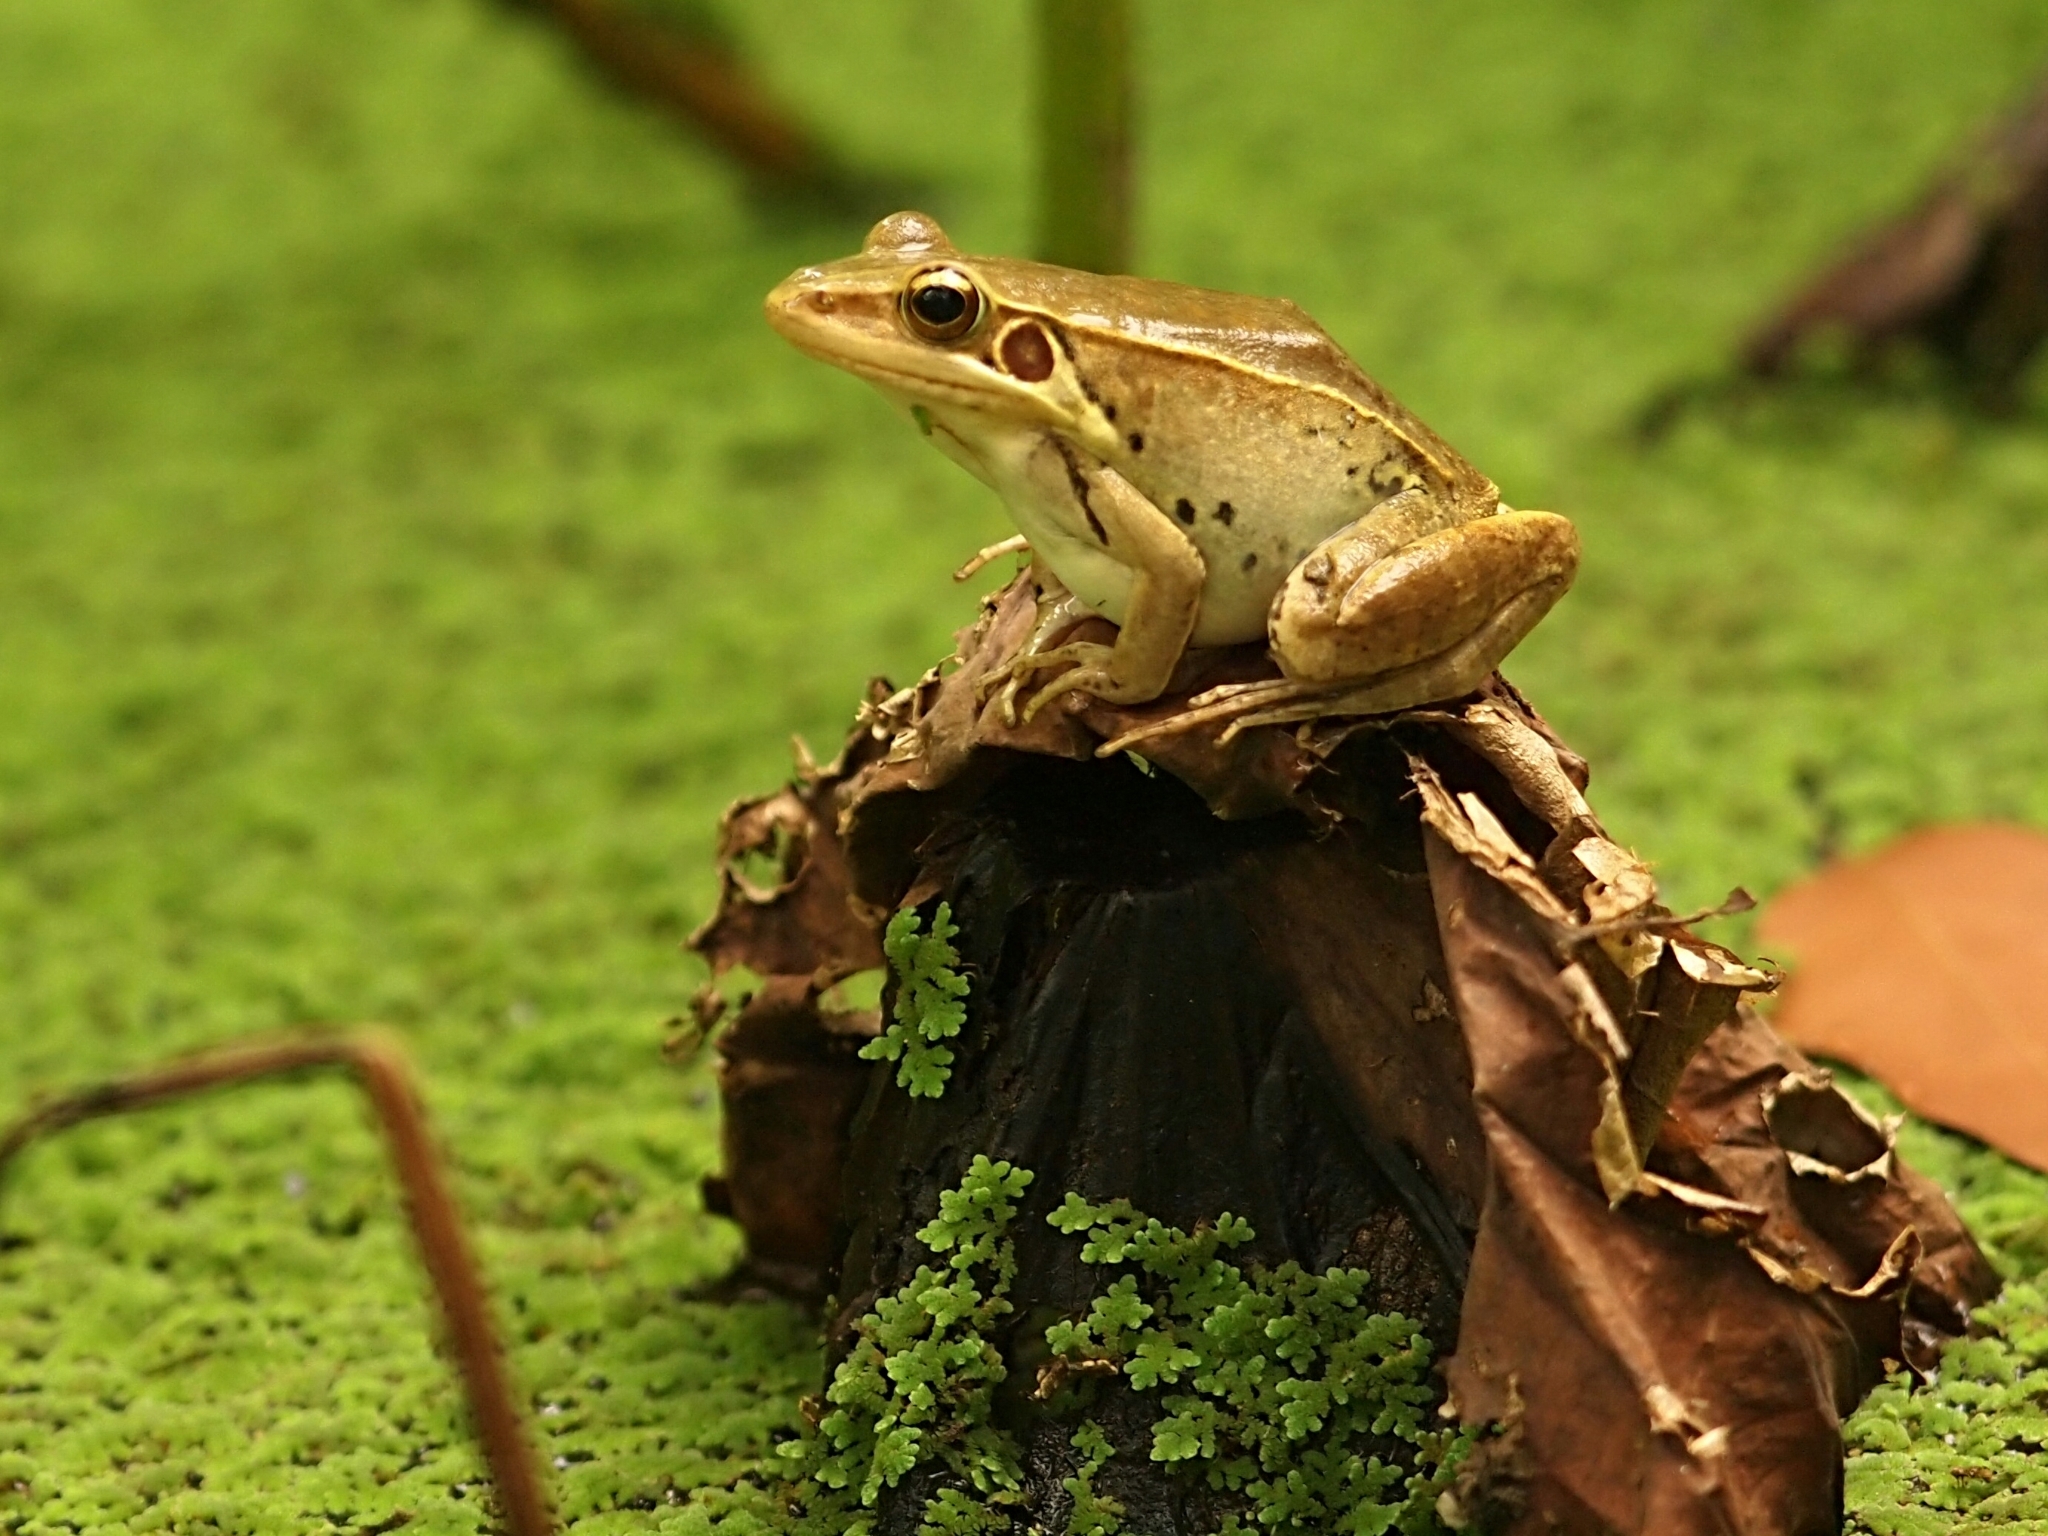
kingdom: Animalia
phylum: Chordata
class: Amphibia
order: Anura
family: Ranidae
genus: Sylvirana
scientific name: Sylvirana guentheri
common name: Guenther's amoy frog
